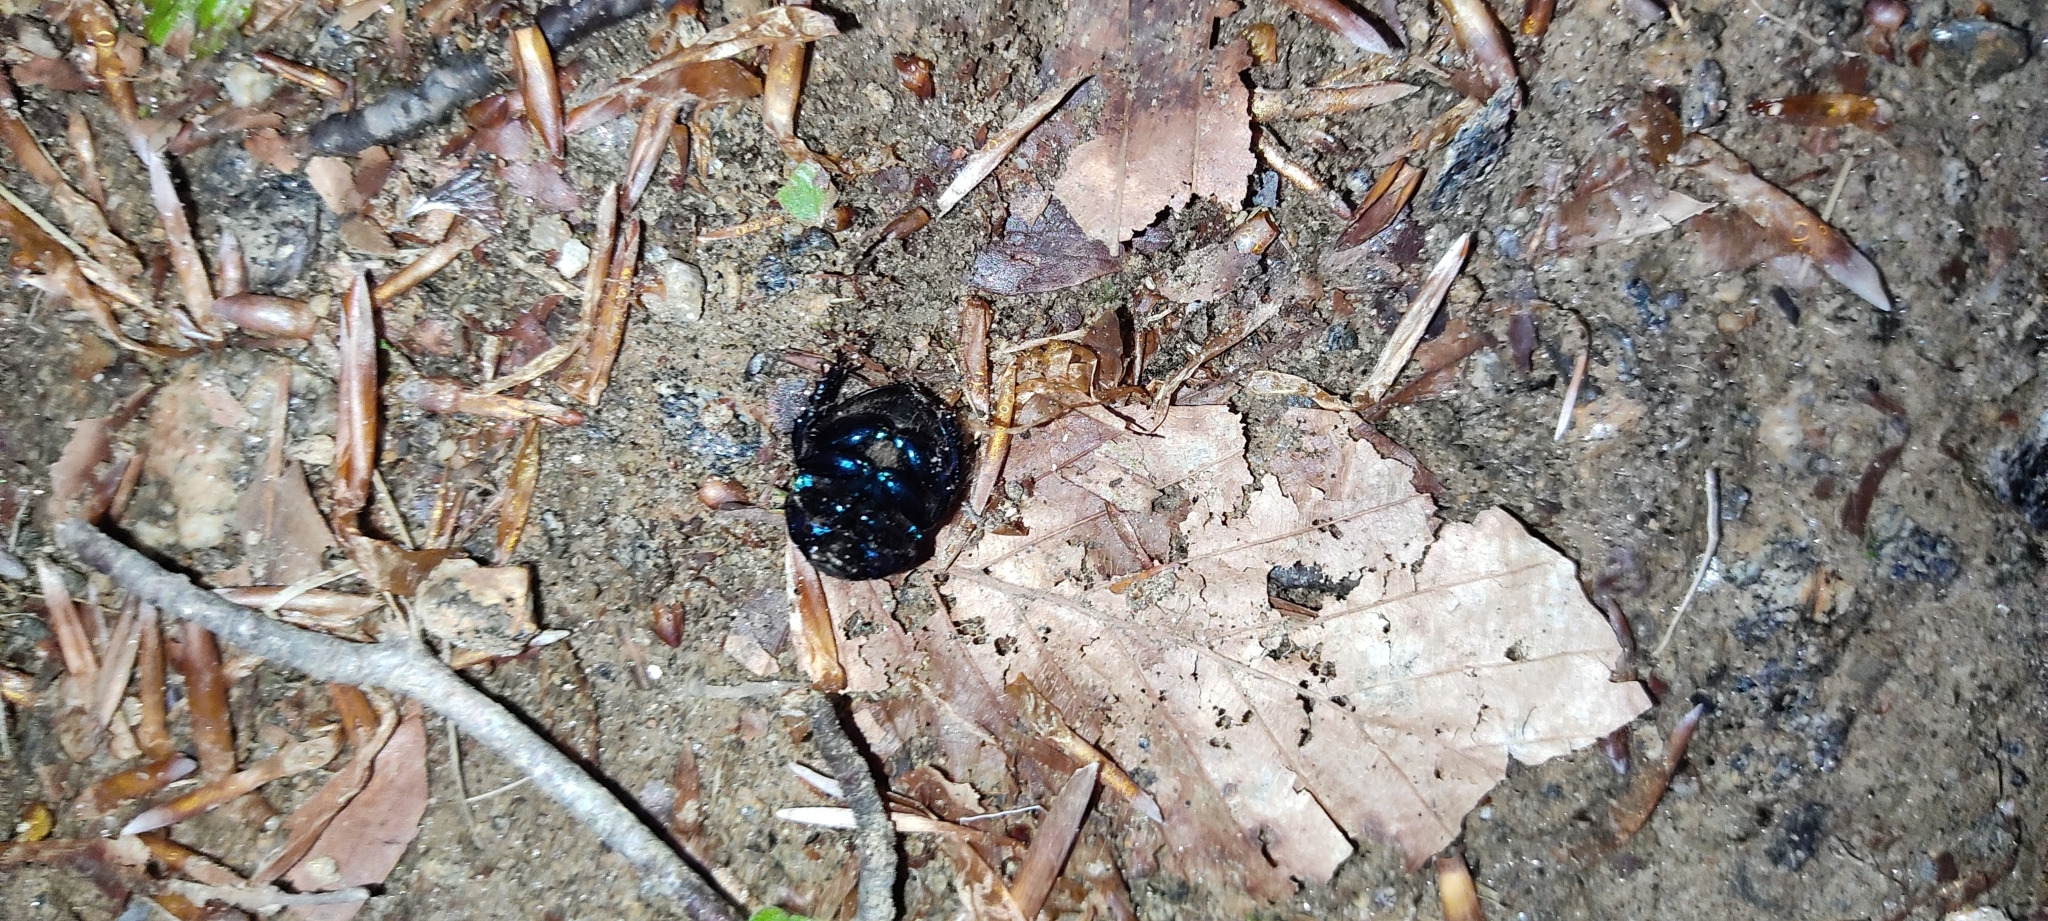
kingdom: Animalia
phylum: Arthropoda
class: Insecta
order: Coleoptera
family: Geotrupidae
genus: Anoplotrupes
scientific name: Anoplotrupes stercorosus
